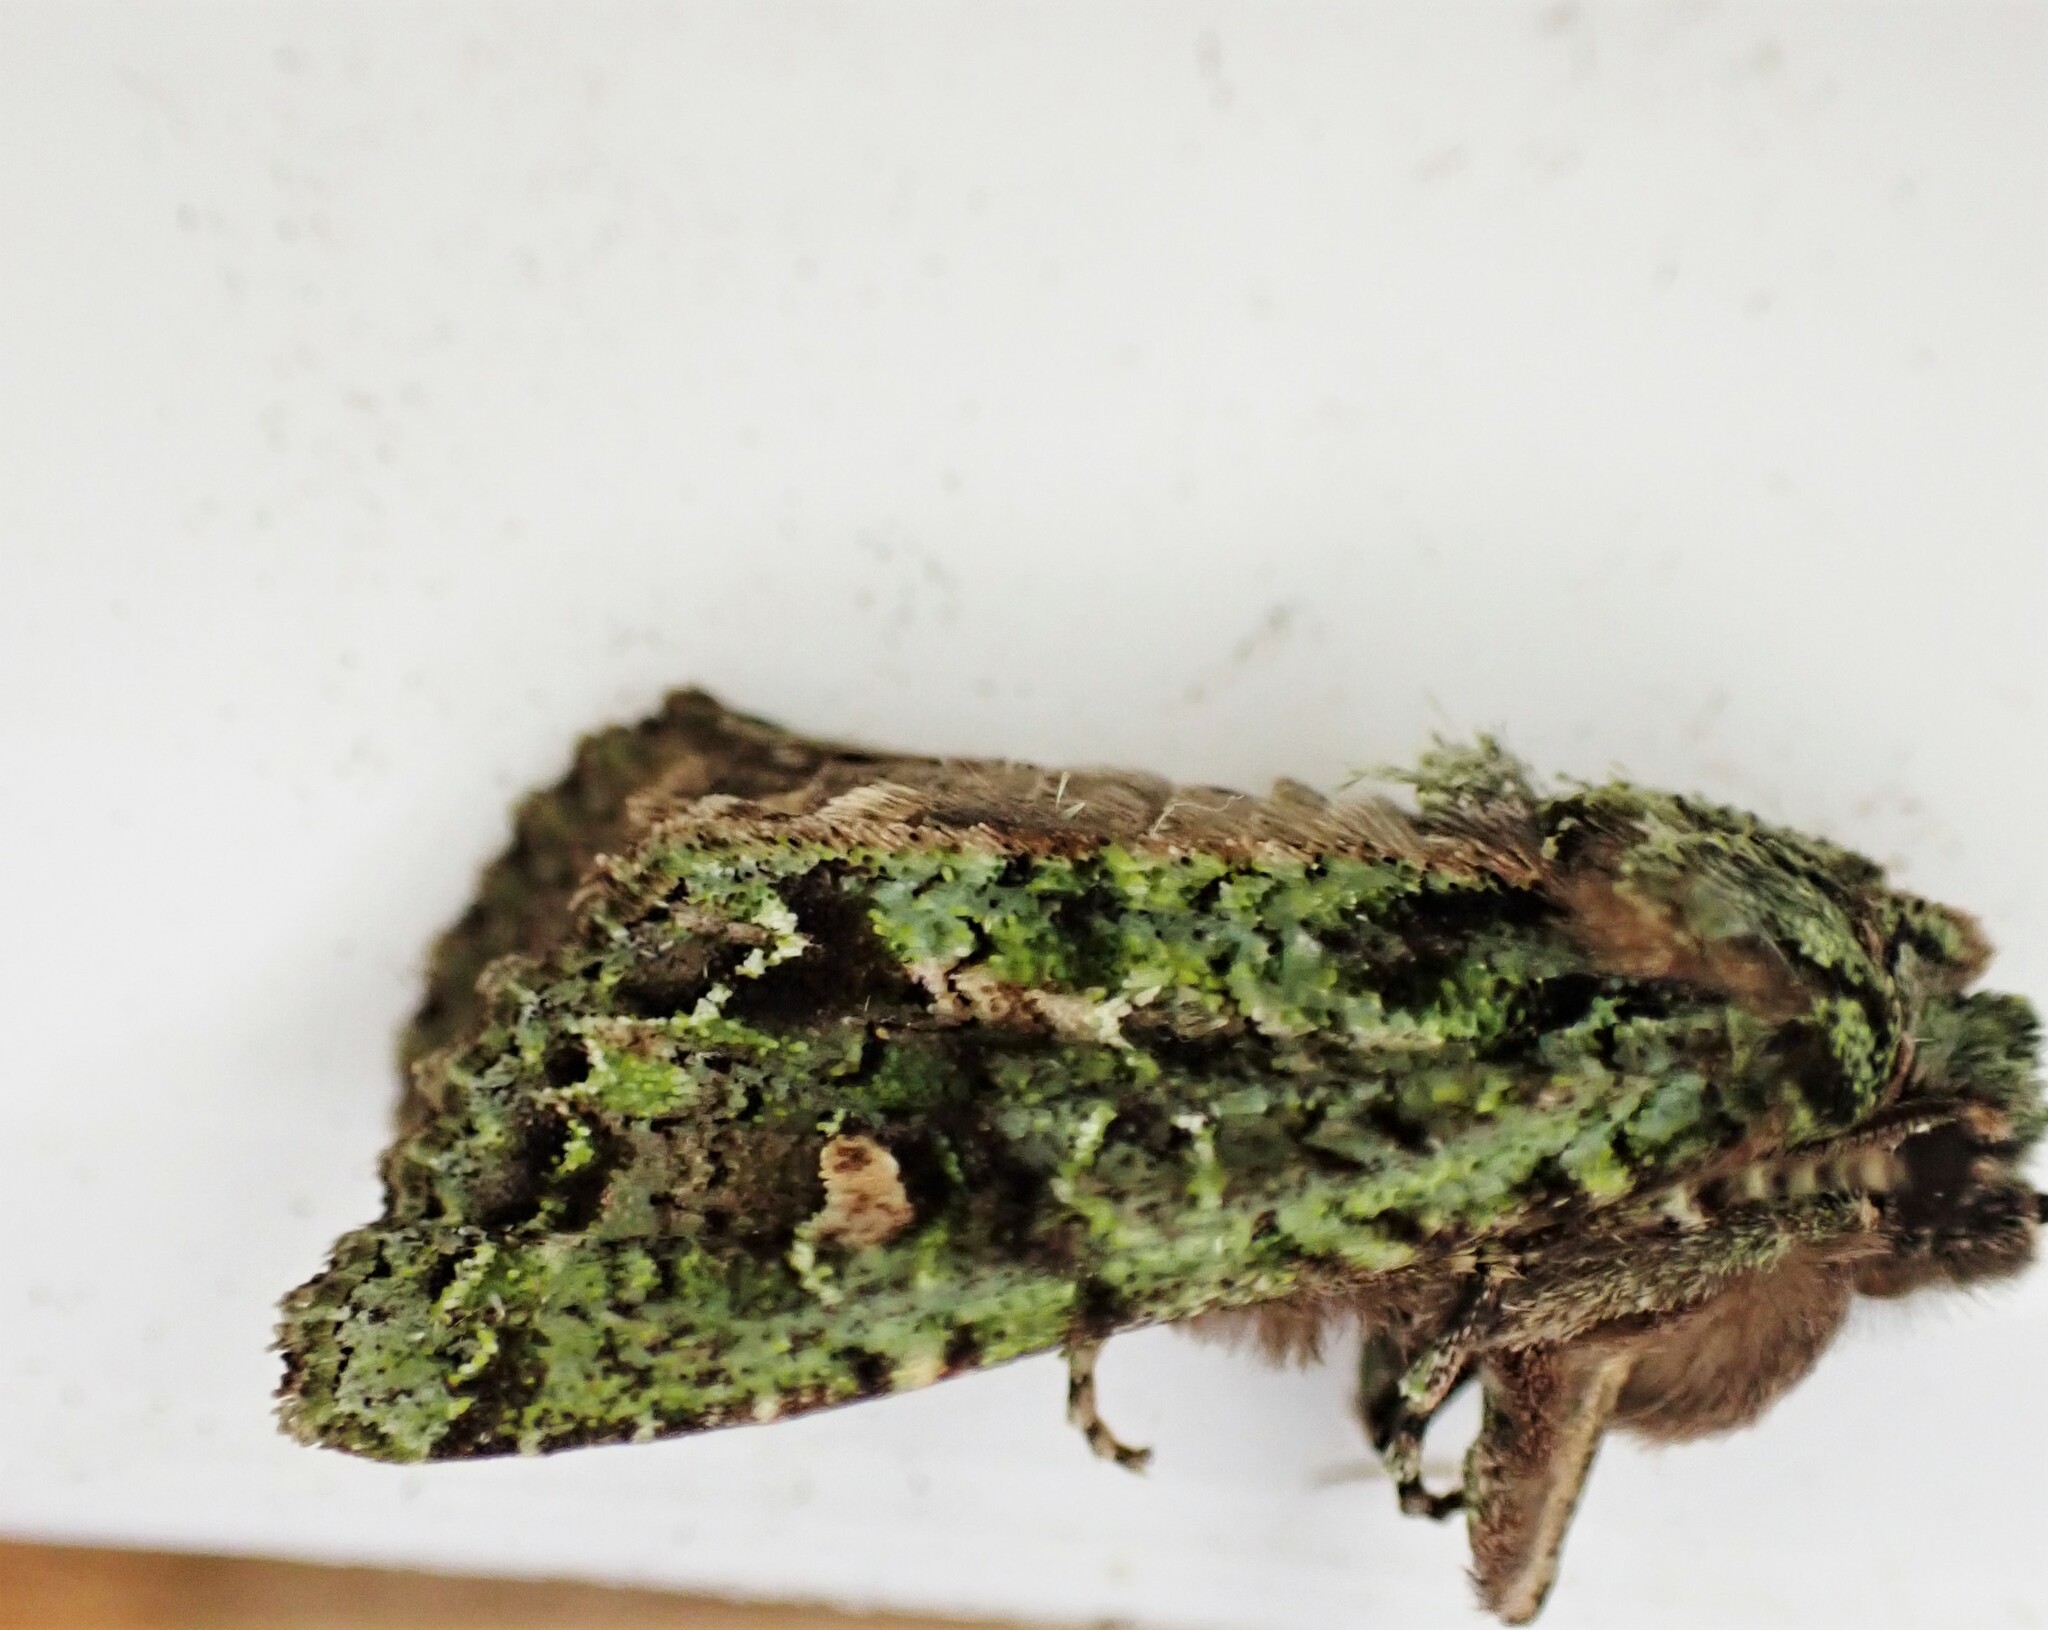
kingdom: Animalia
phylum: Arthropoda
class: Insecta
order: Lepidoptera
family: Noctuidae
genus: Ichneutica
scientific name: Ichneutica
